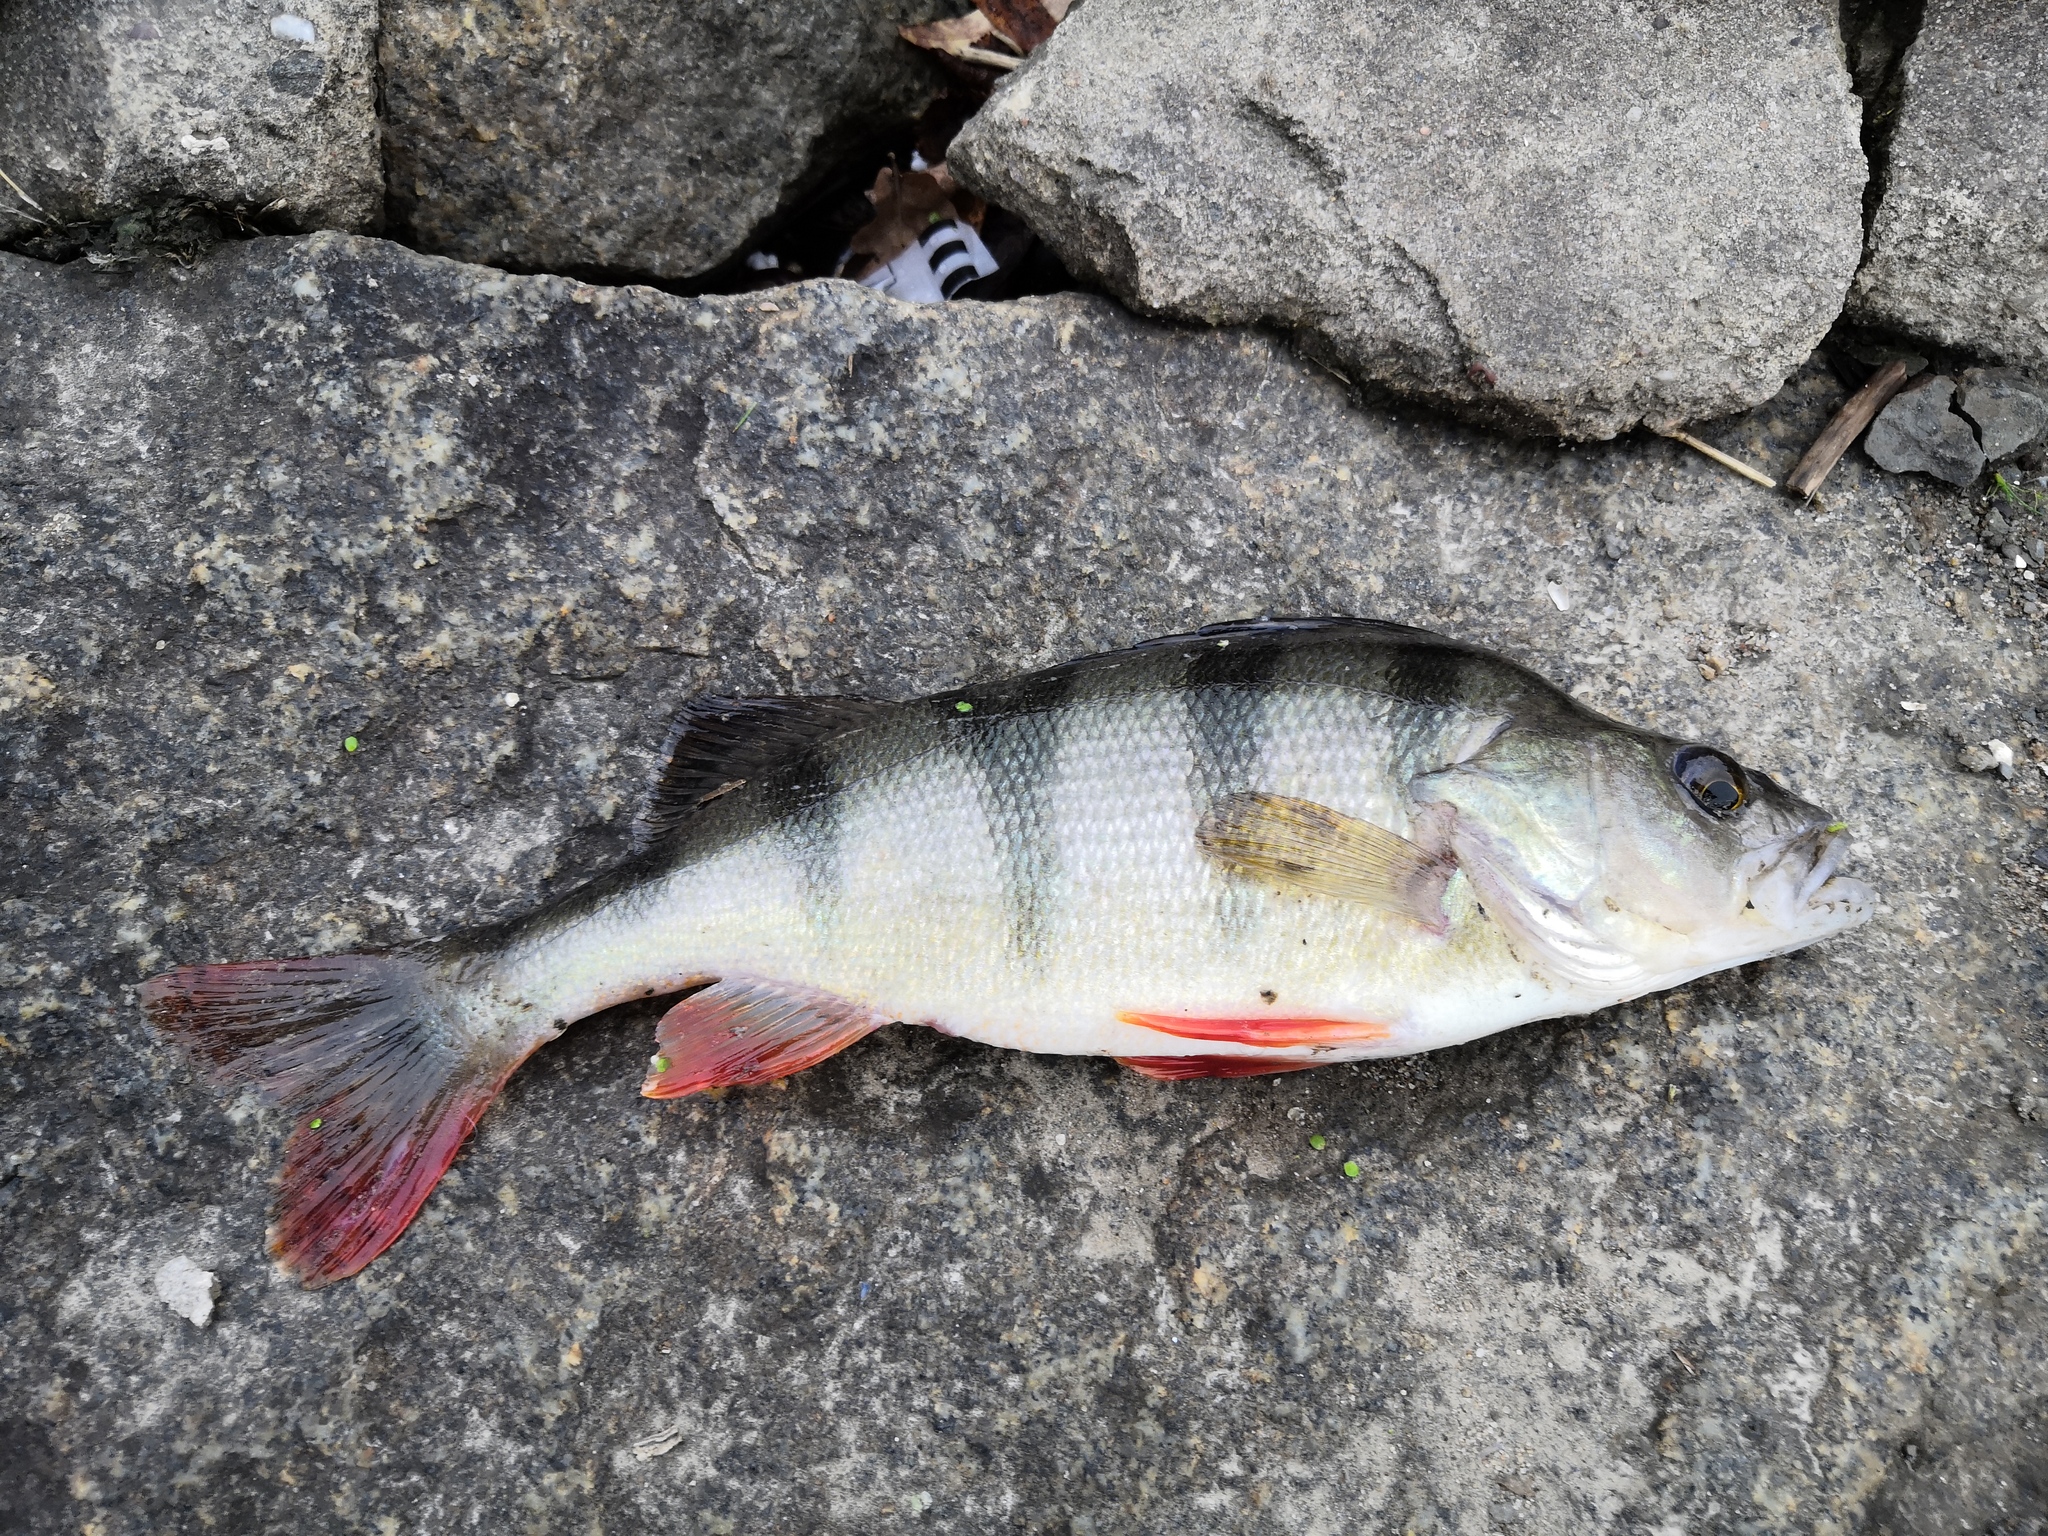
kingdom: Animalia
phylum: Chordata
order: Perciformes
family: Percidae
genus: Perca
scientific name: Perca fluviatilis
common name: Perch
